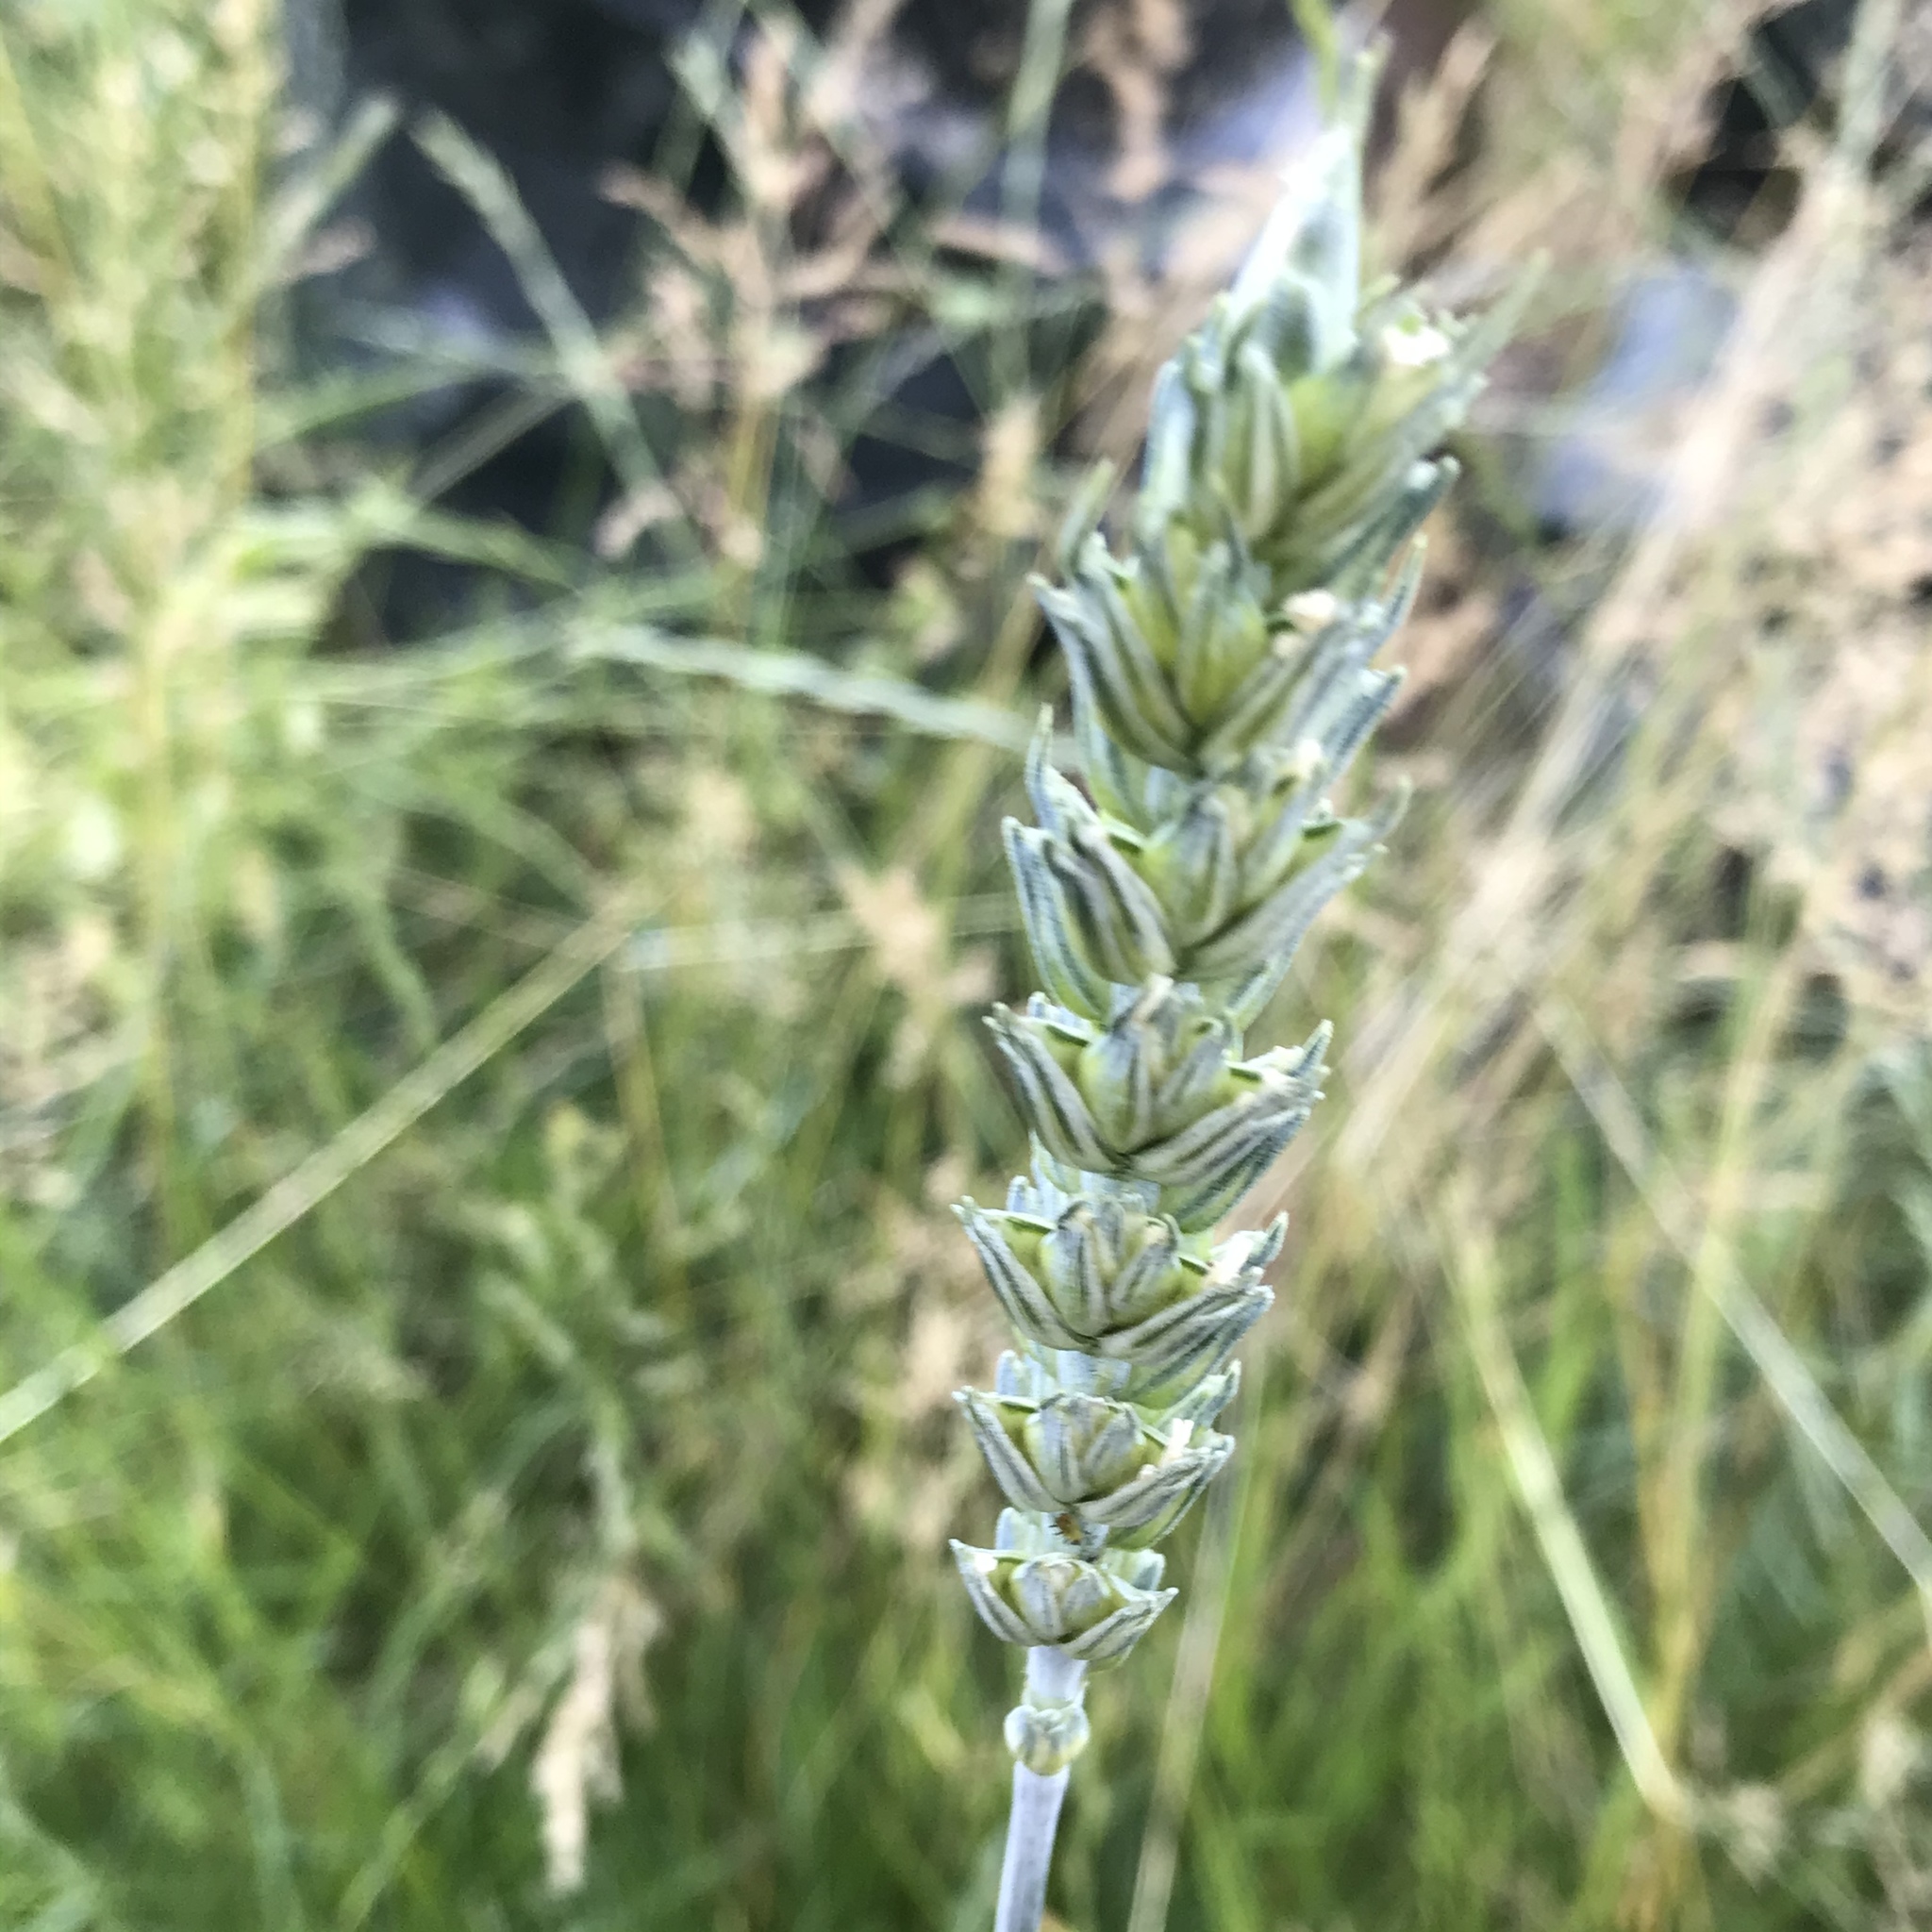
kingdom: Plantae
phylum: Tracheophyta
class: Liliopsida
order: Poales
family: Poaceae
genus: Triticum
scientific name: Triticum aestivum
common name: Common wheat
